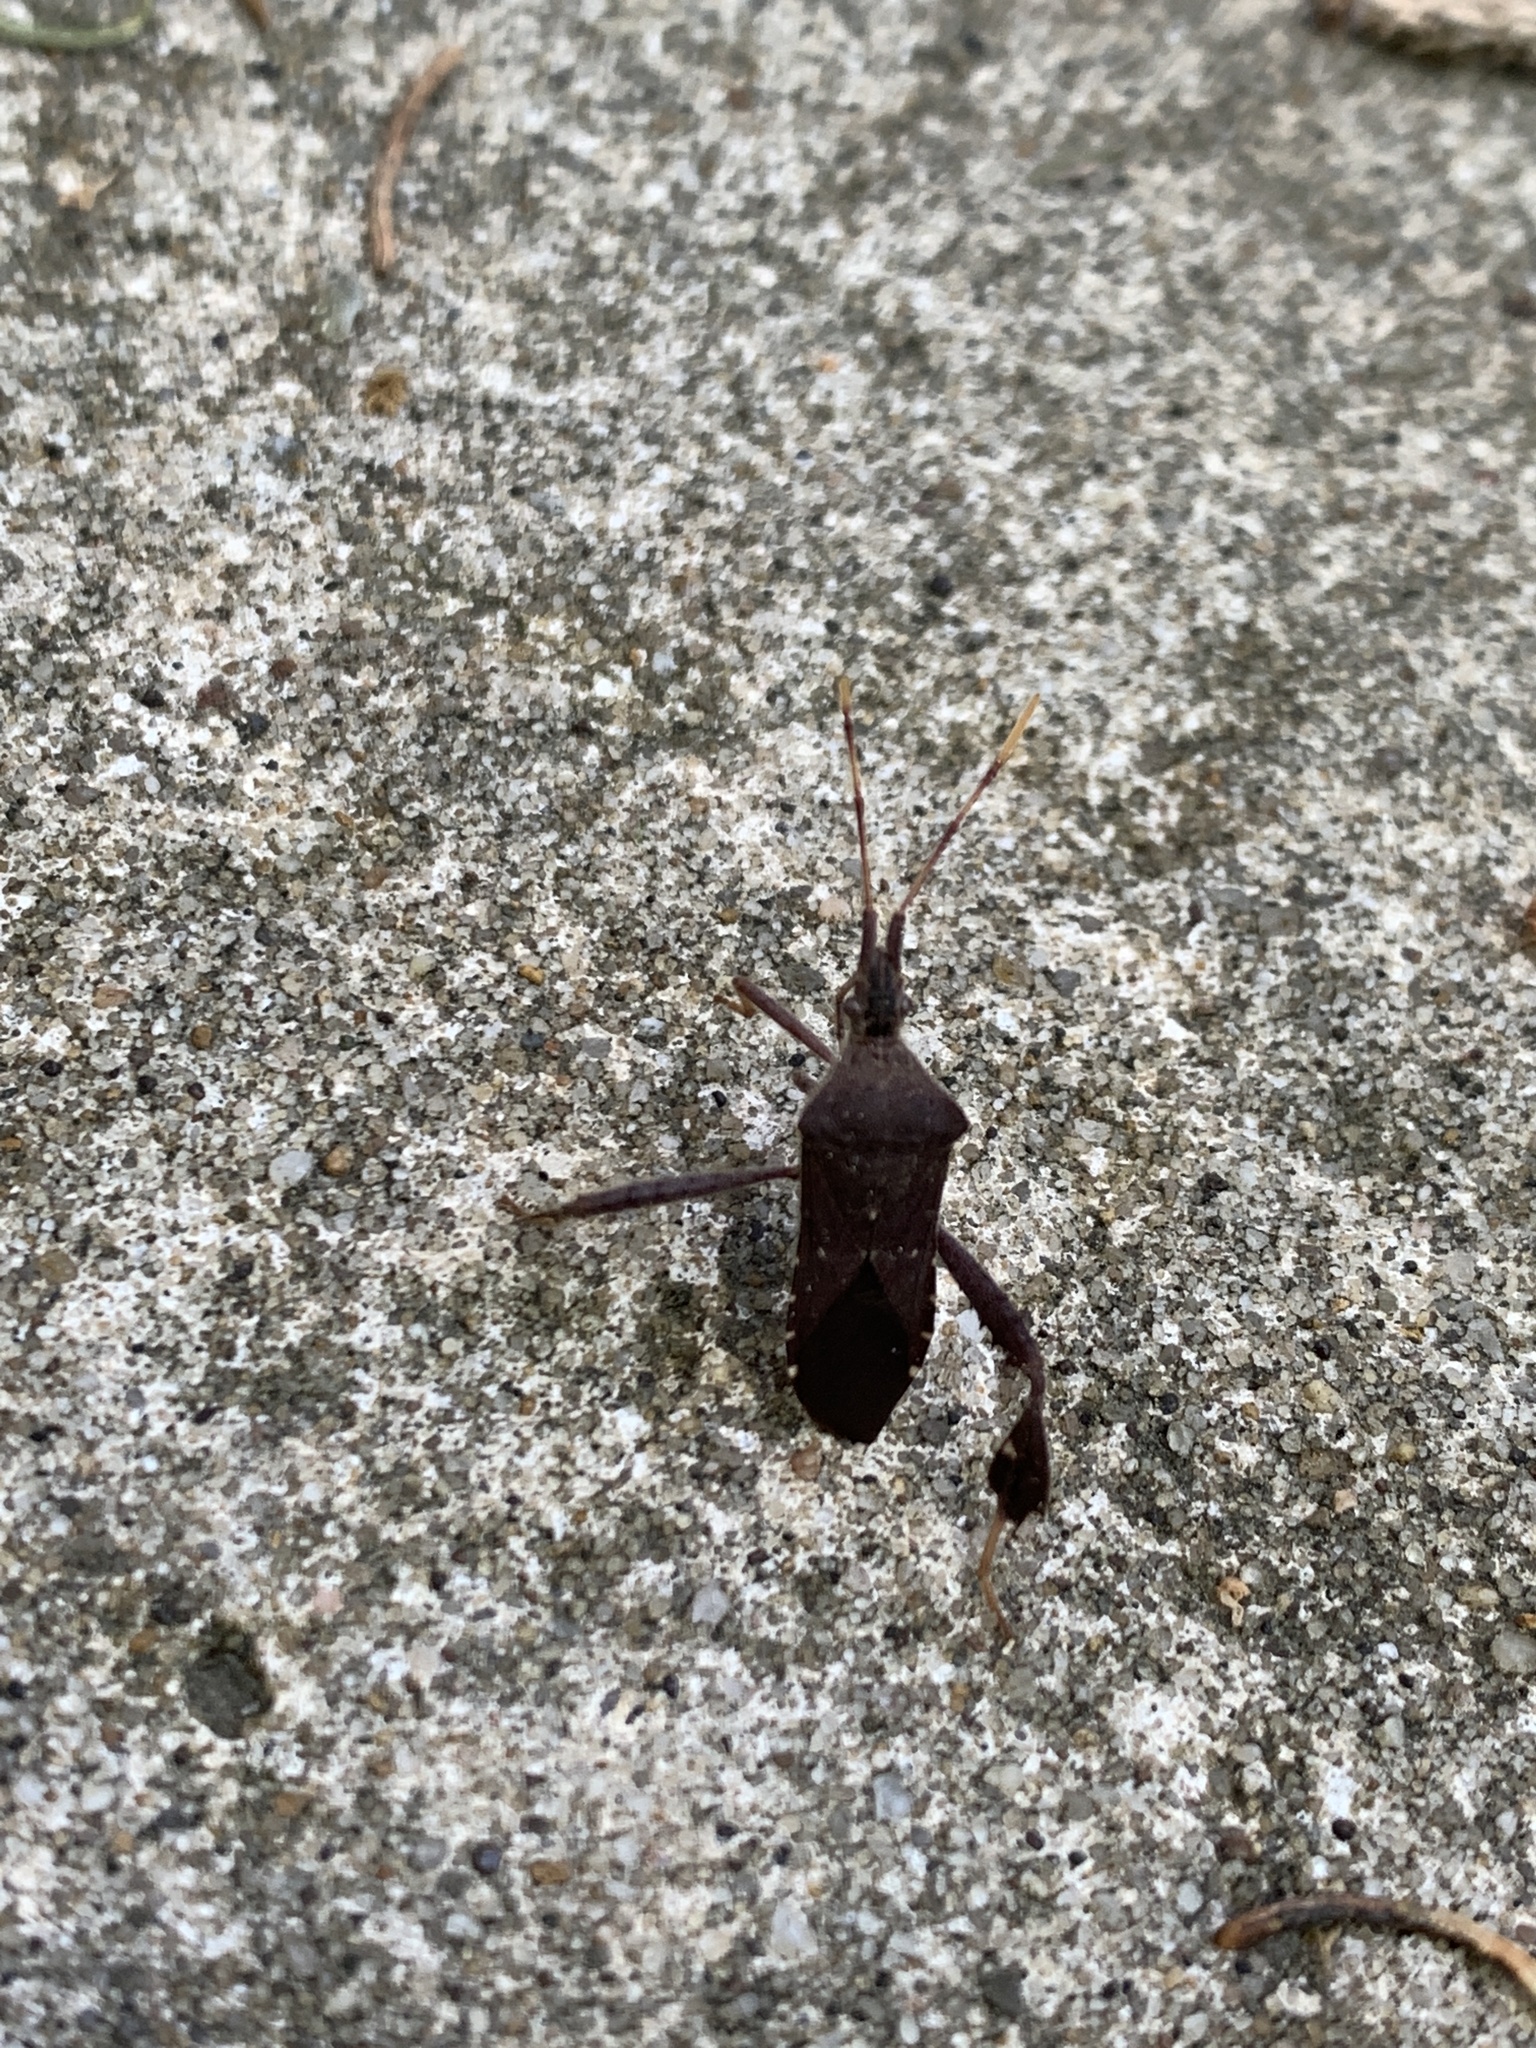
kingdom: Animalia
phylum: Arthropoda
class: Insecta
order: Hemiptera
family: Coreidae
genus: Leptoglossus
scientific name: Leptoglossus oppositus
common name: Northern leaf-footed bug
